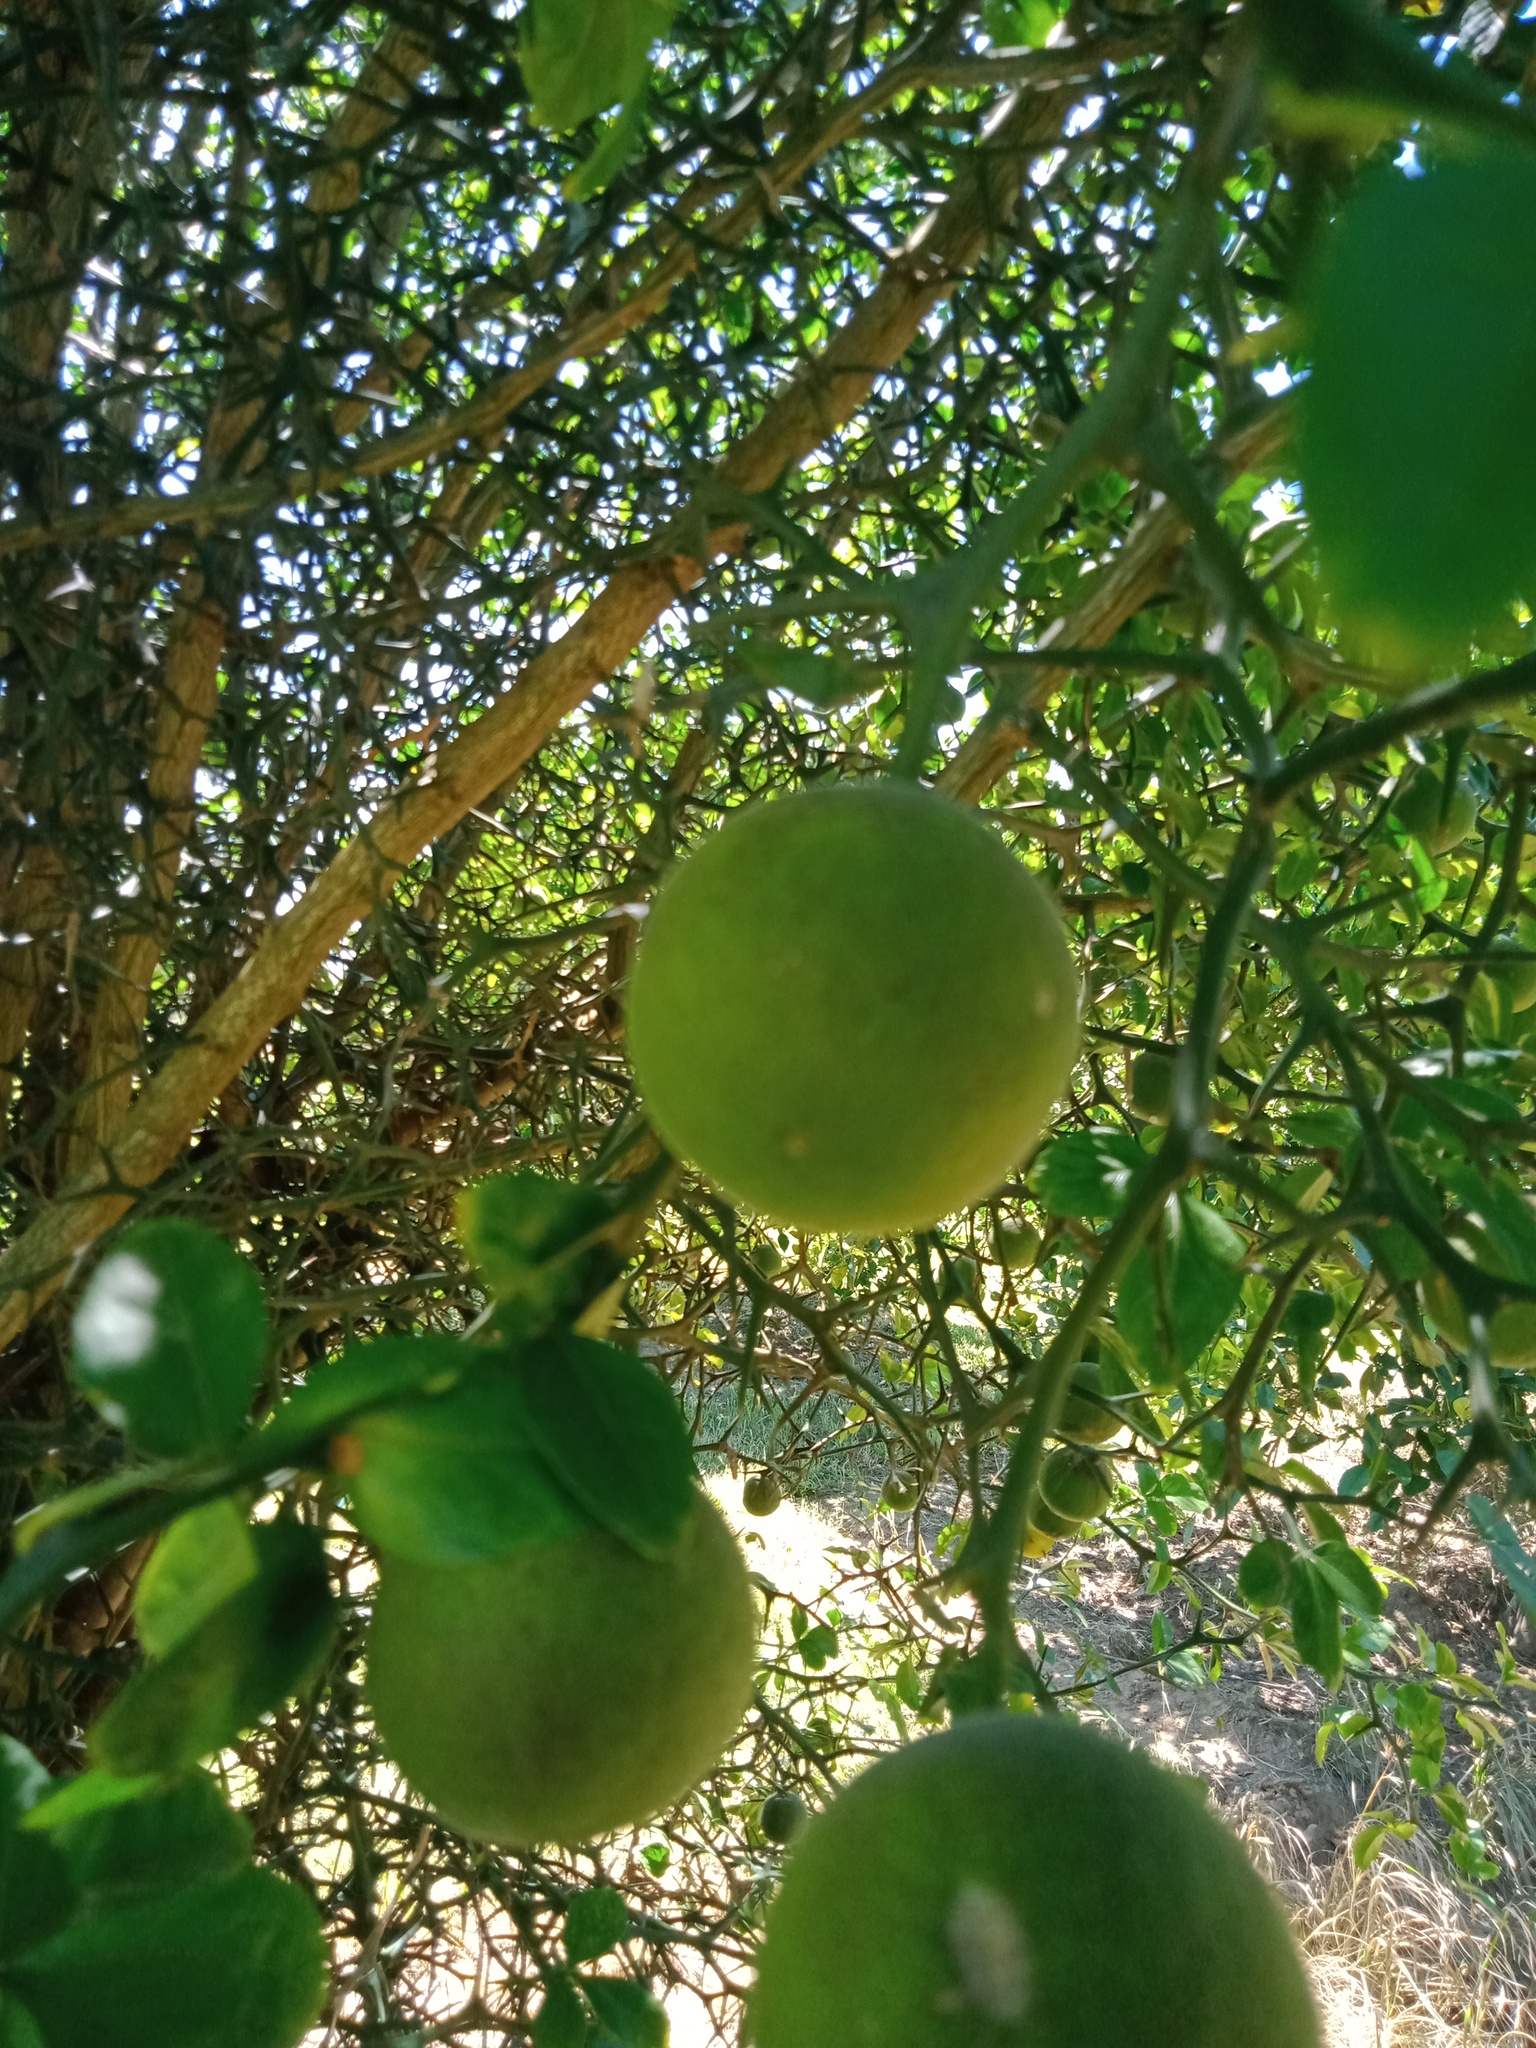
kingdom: Animalia
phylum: Arthropoda
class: Insecta
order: Hemiptera
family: Pentatomidae
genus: Biprorulus
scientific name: Biprorulus
